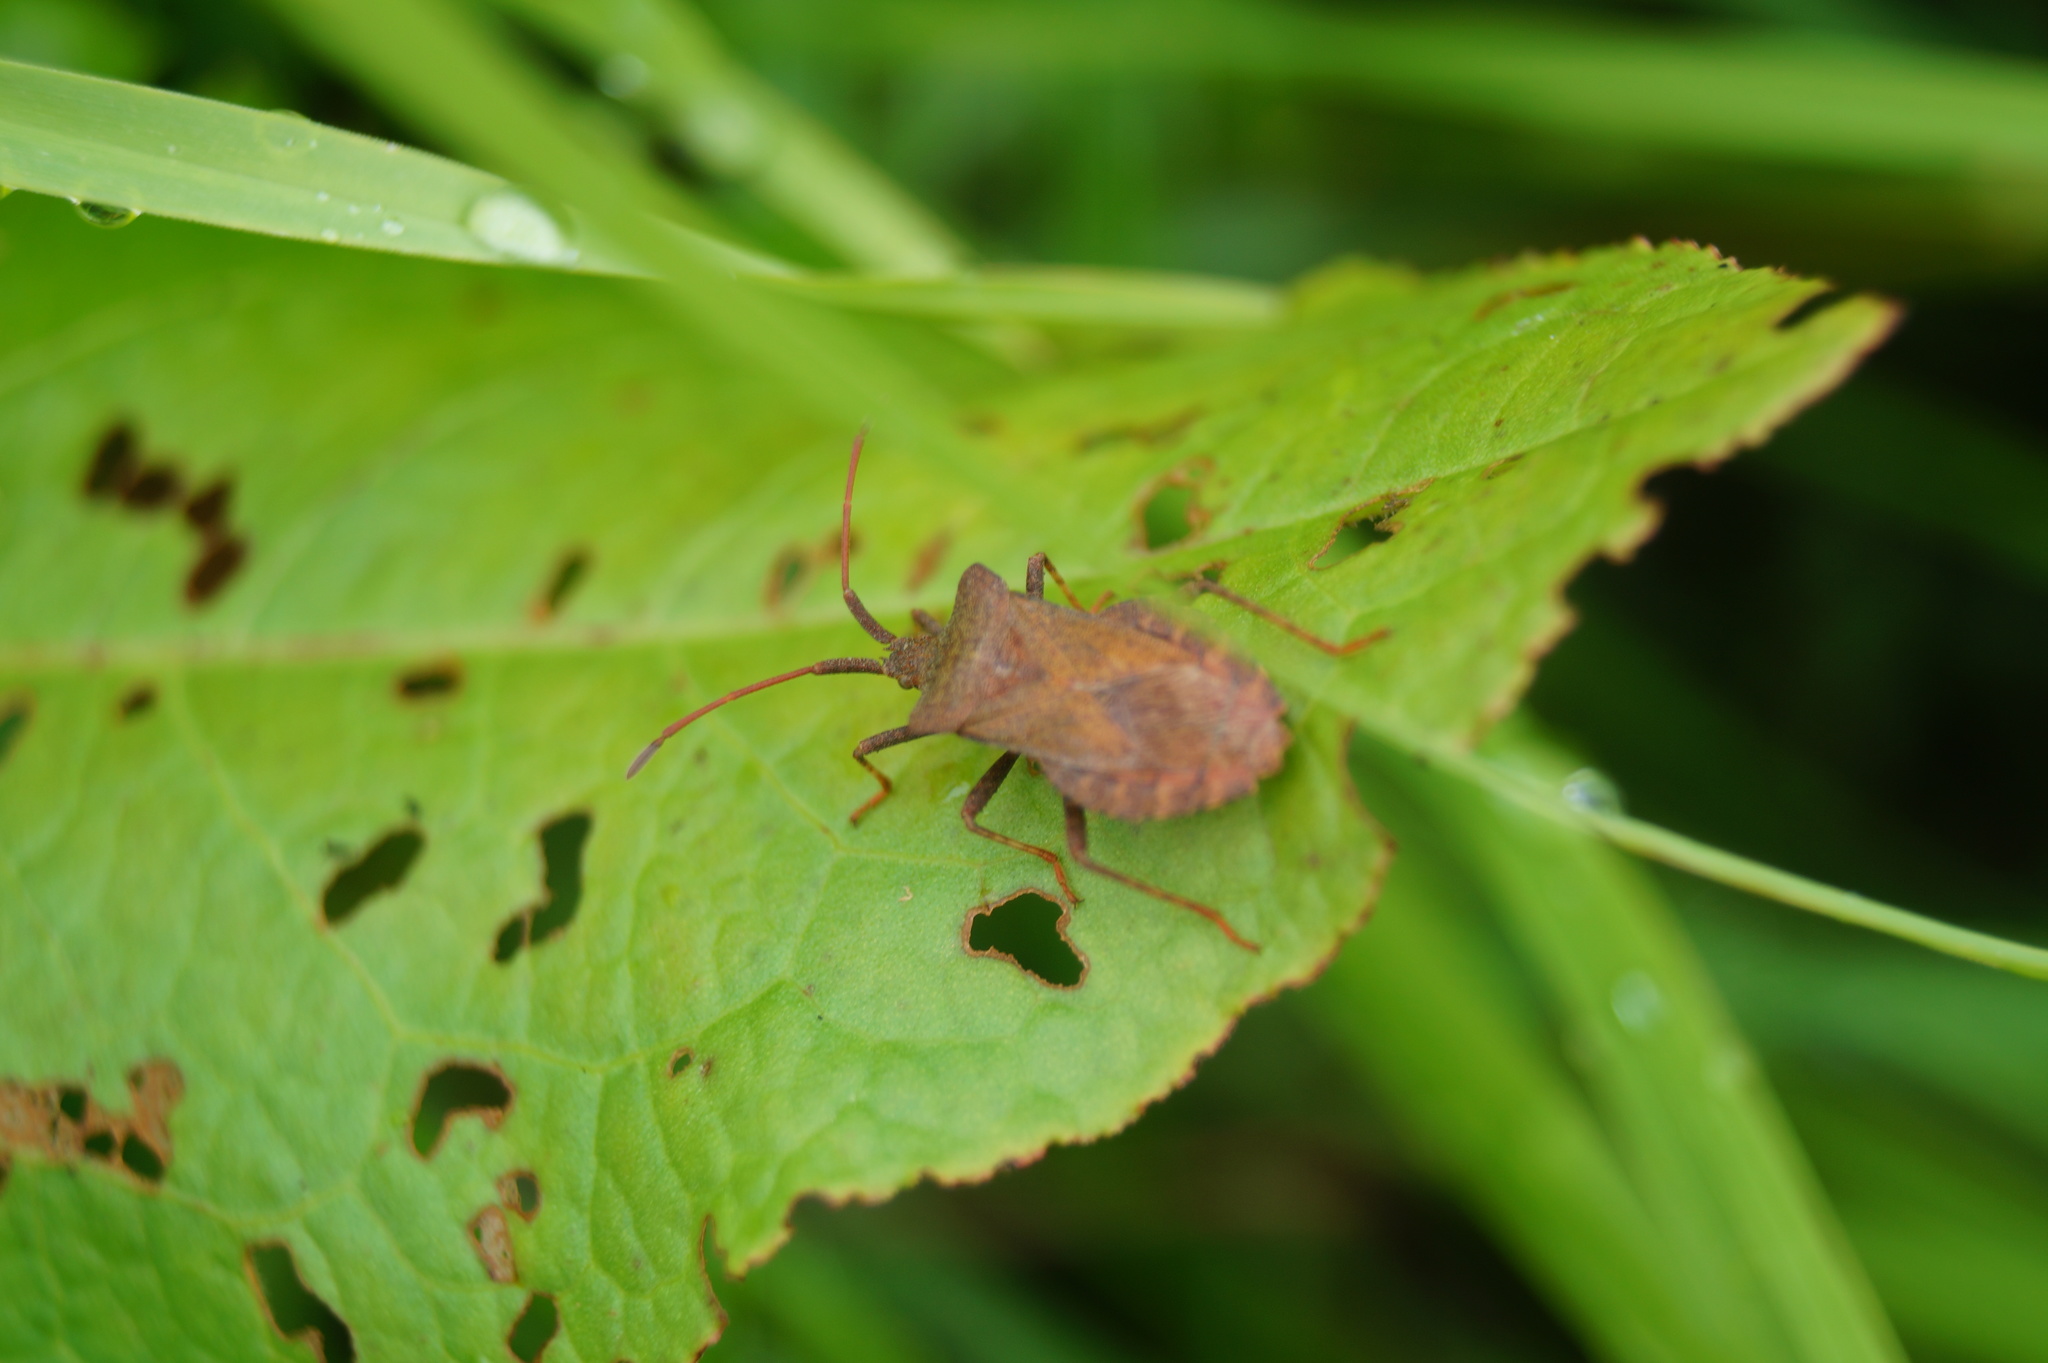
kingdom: Animalia
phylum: Arthropoda
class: Insecta
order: Hemiptera
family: Coreidae
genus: Coreus
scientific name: Coreus marginatus
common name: Dock bug
